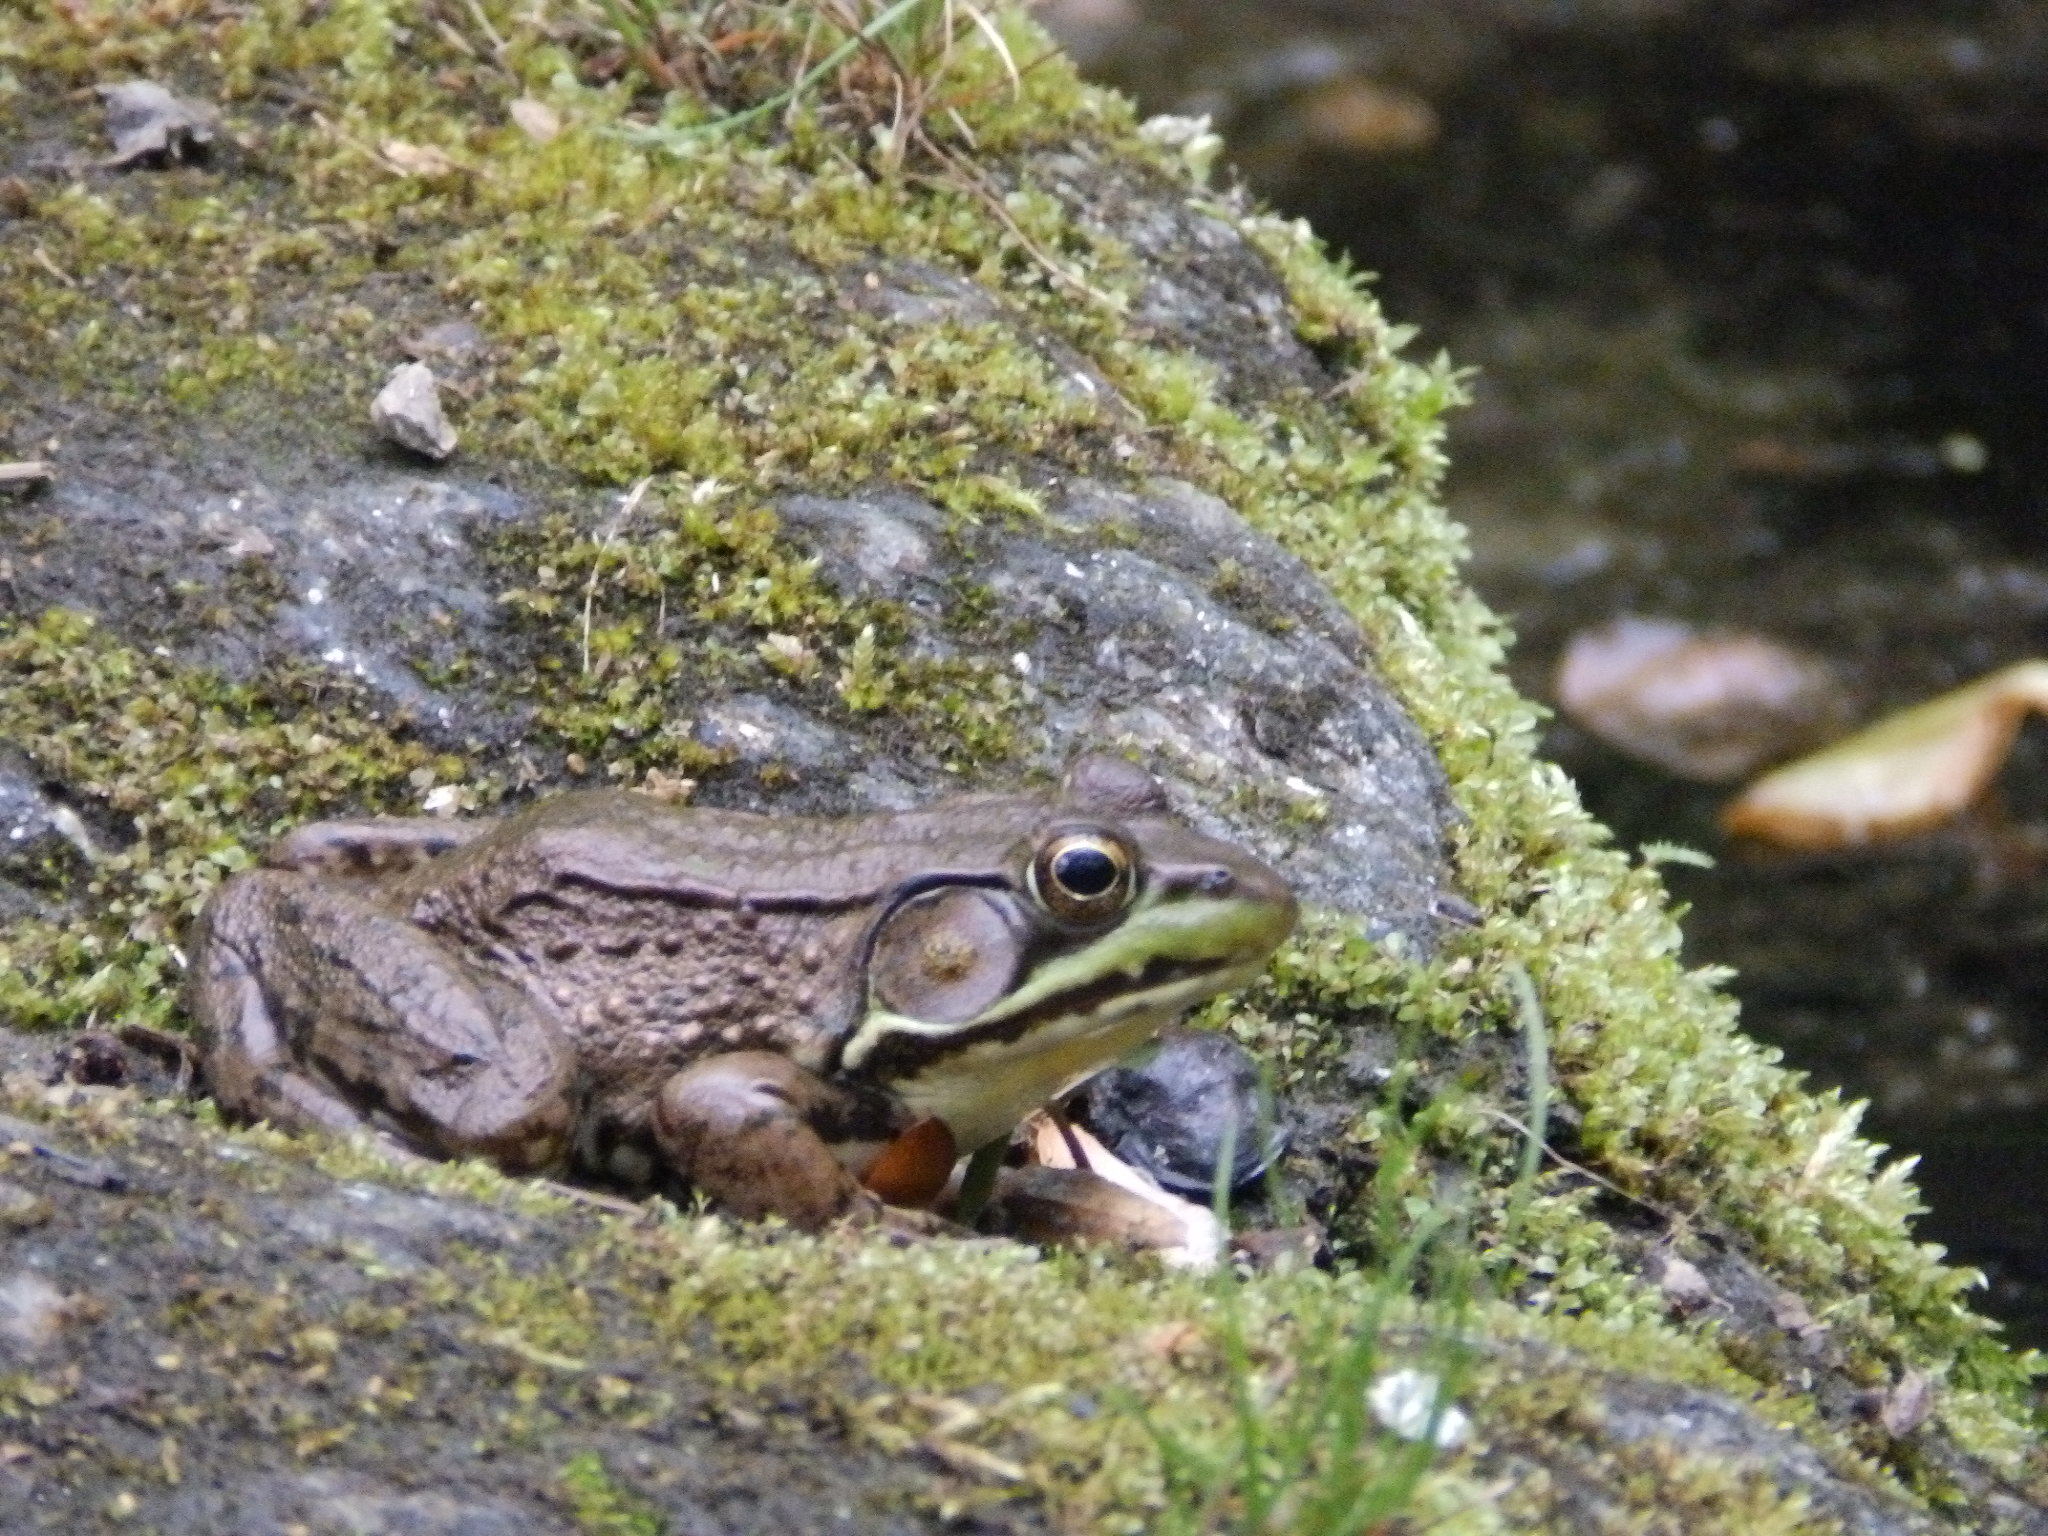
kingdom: Animalia
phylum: Chordata
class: Amphibia
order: Anura
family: Ranidae
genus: Lithobates
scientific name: Lithobates clamitans
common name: Green frog
